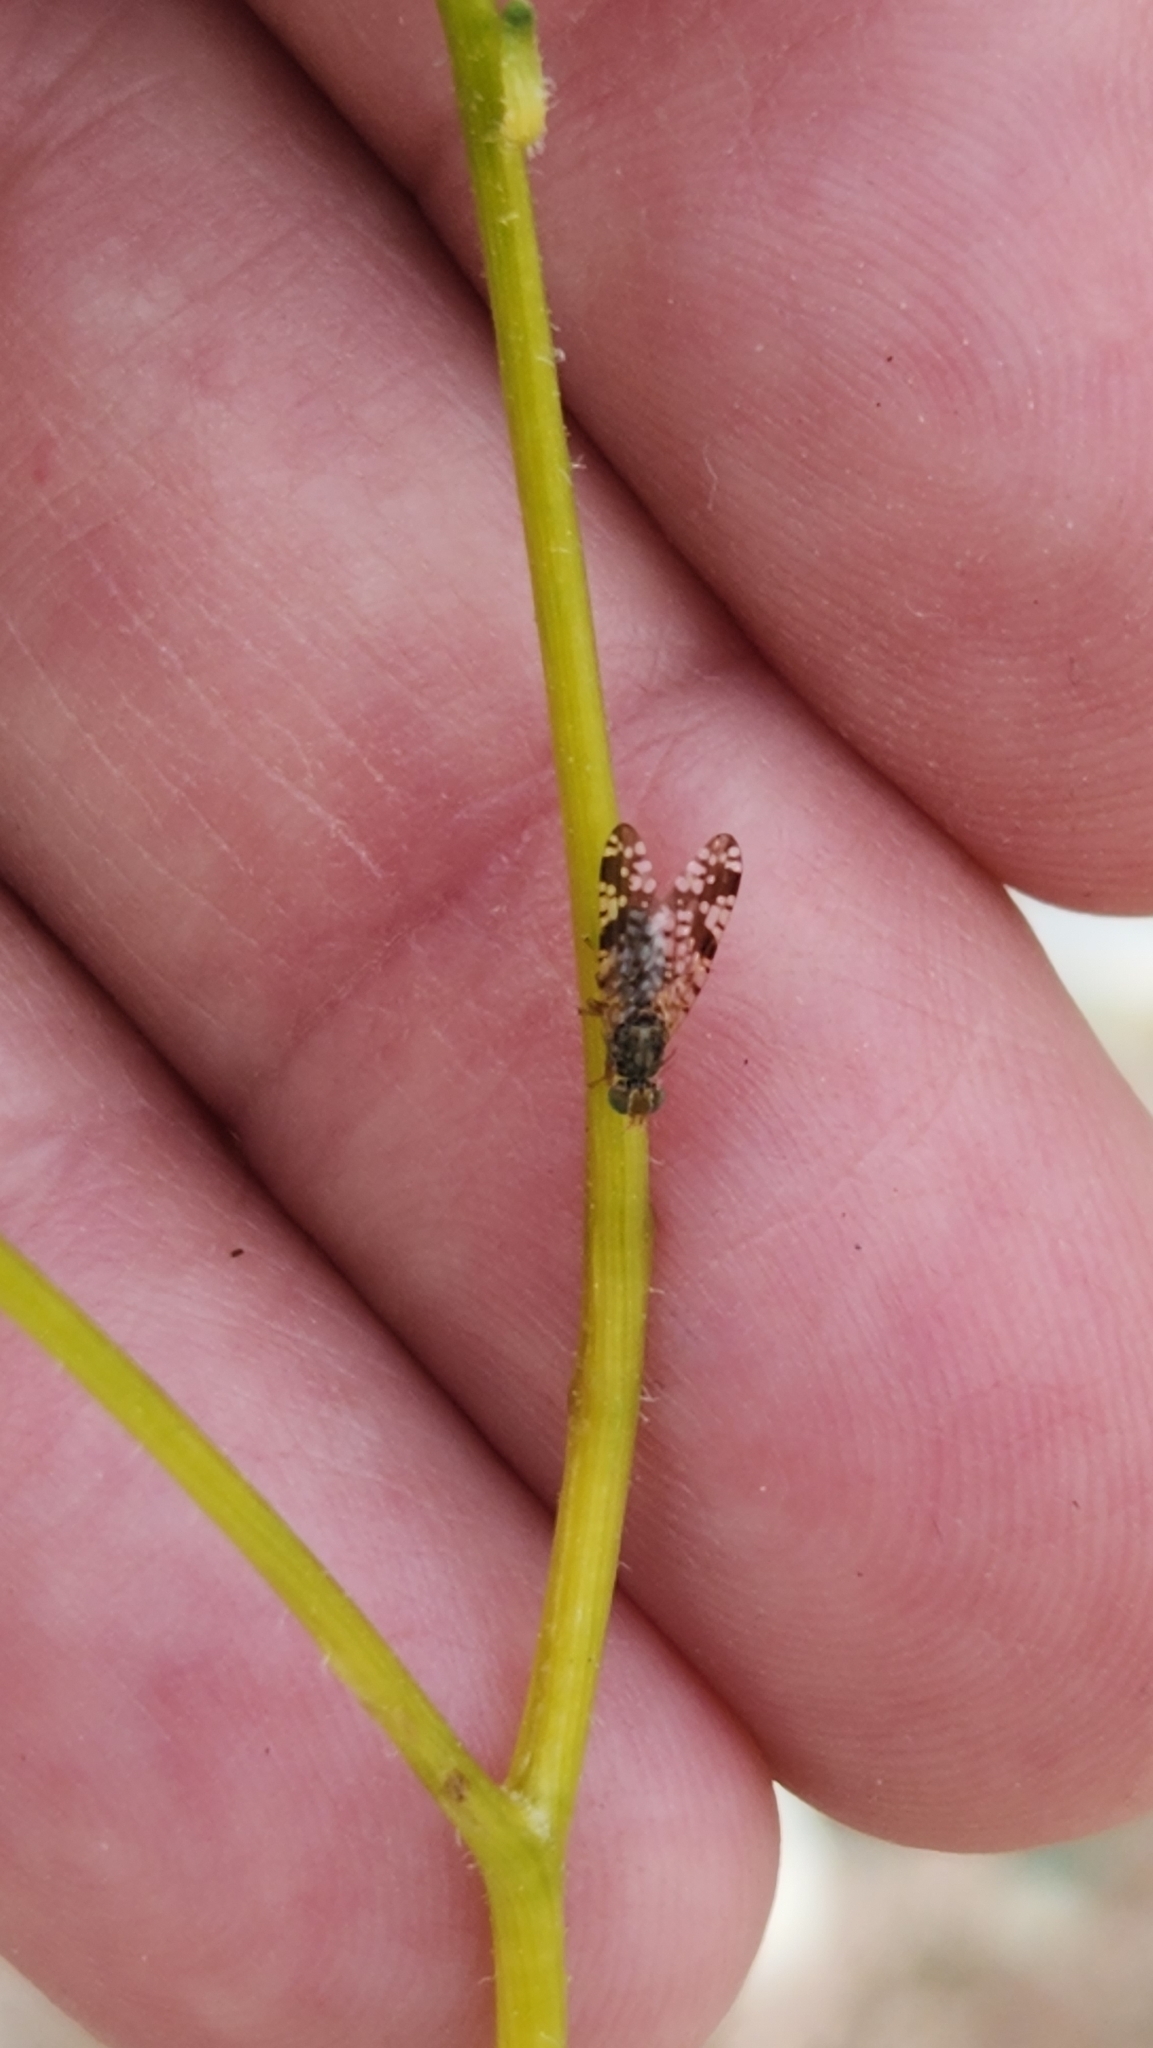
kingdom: Animalia
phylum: Arthropoda
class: Insecta
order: Diptera
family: Tephritidae
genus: Neotephritis
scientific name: Neotephritis finalis
